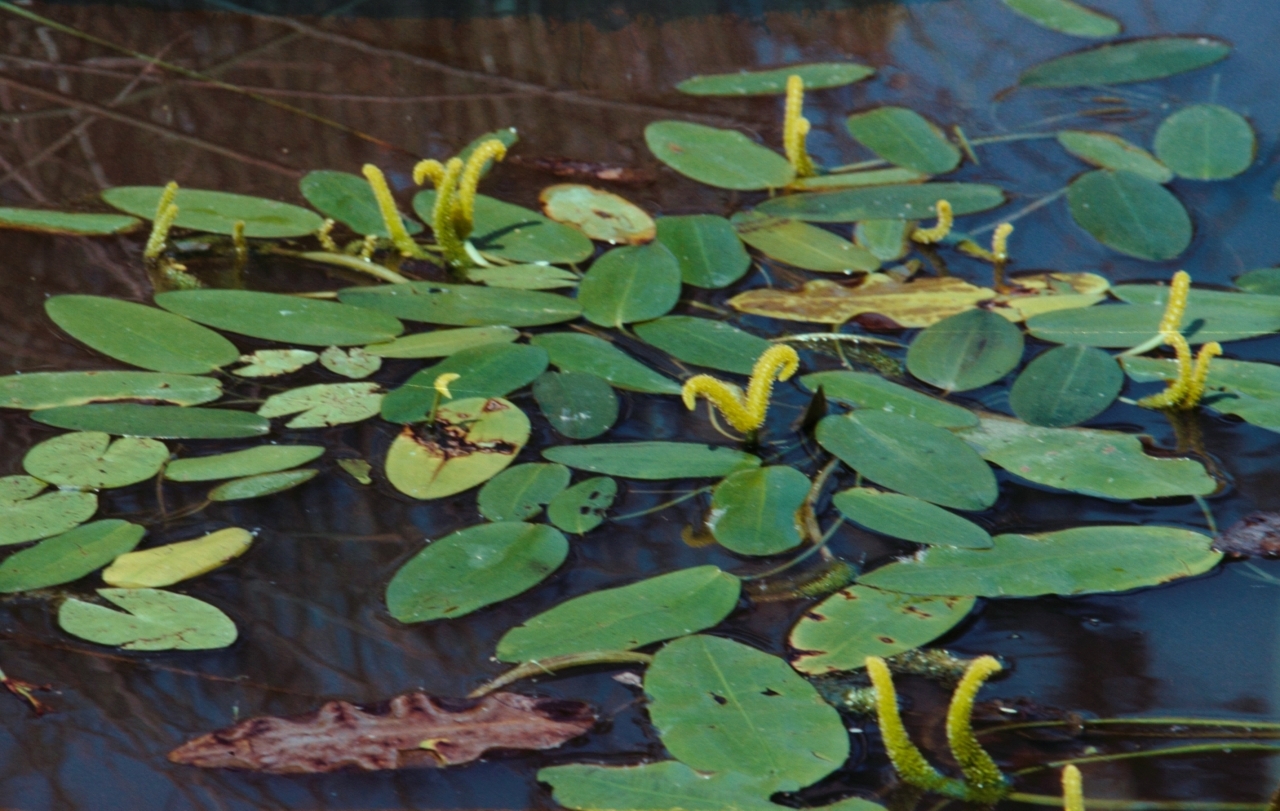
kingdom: Plantae
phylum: Tracheophyta
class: Liliopsida
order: Alismatales
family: Aponogetonaceae
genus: Aponogeton
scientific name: Aponogeton desertorum
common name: Dog-with-two-tails
